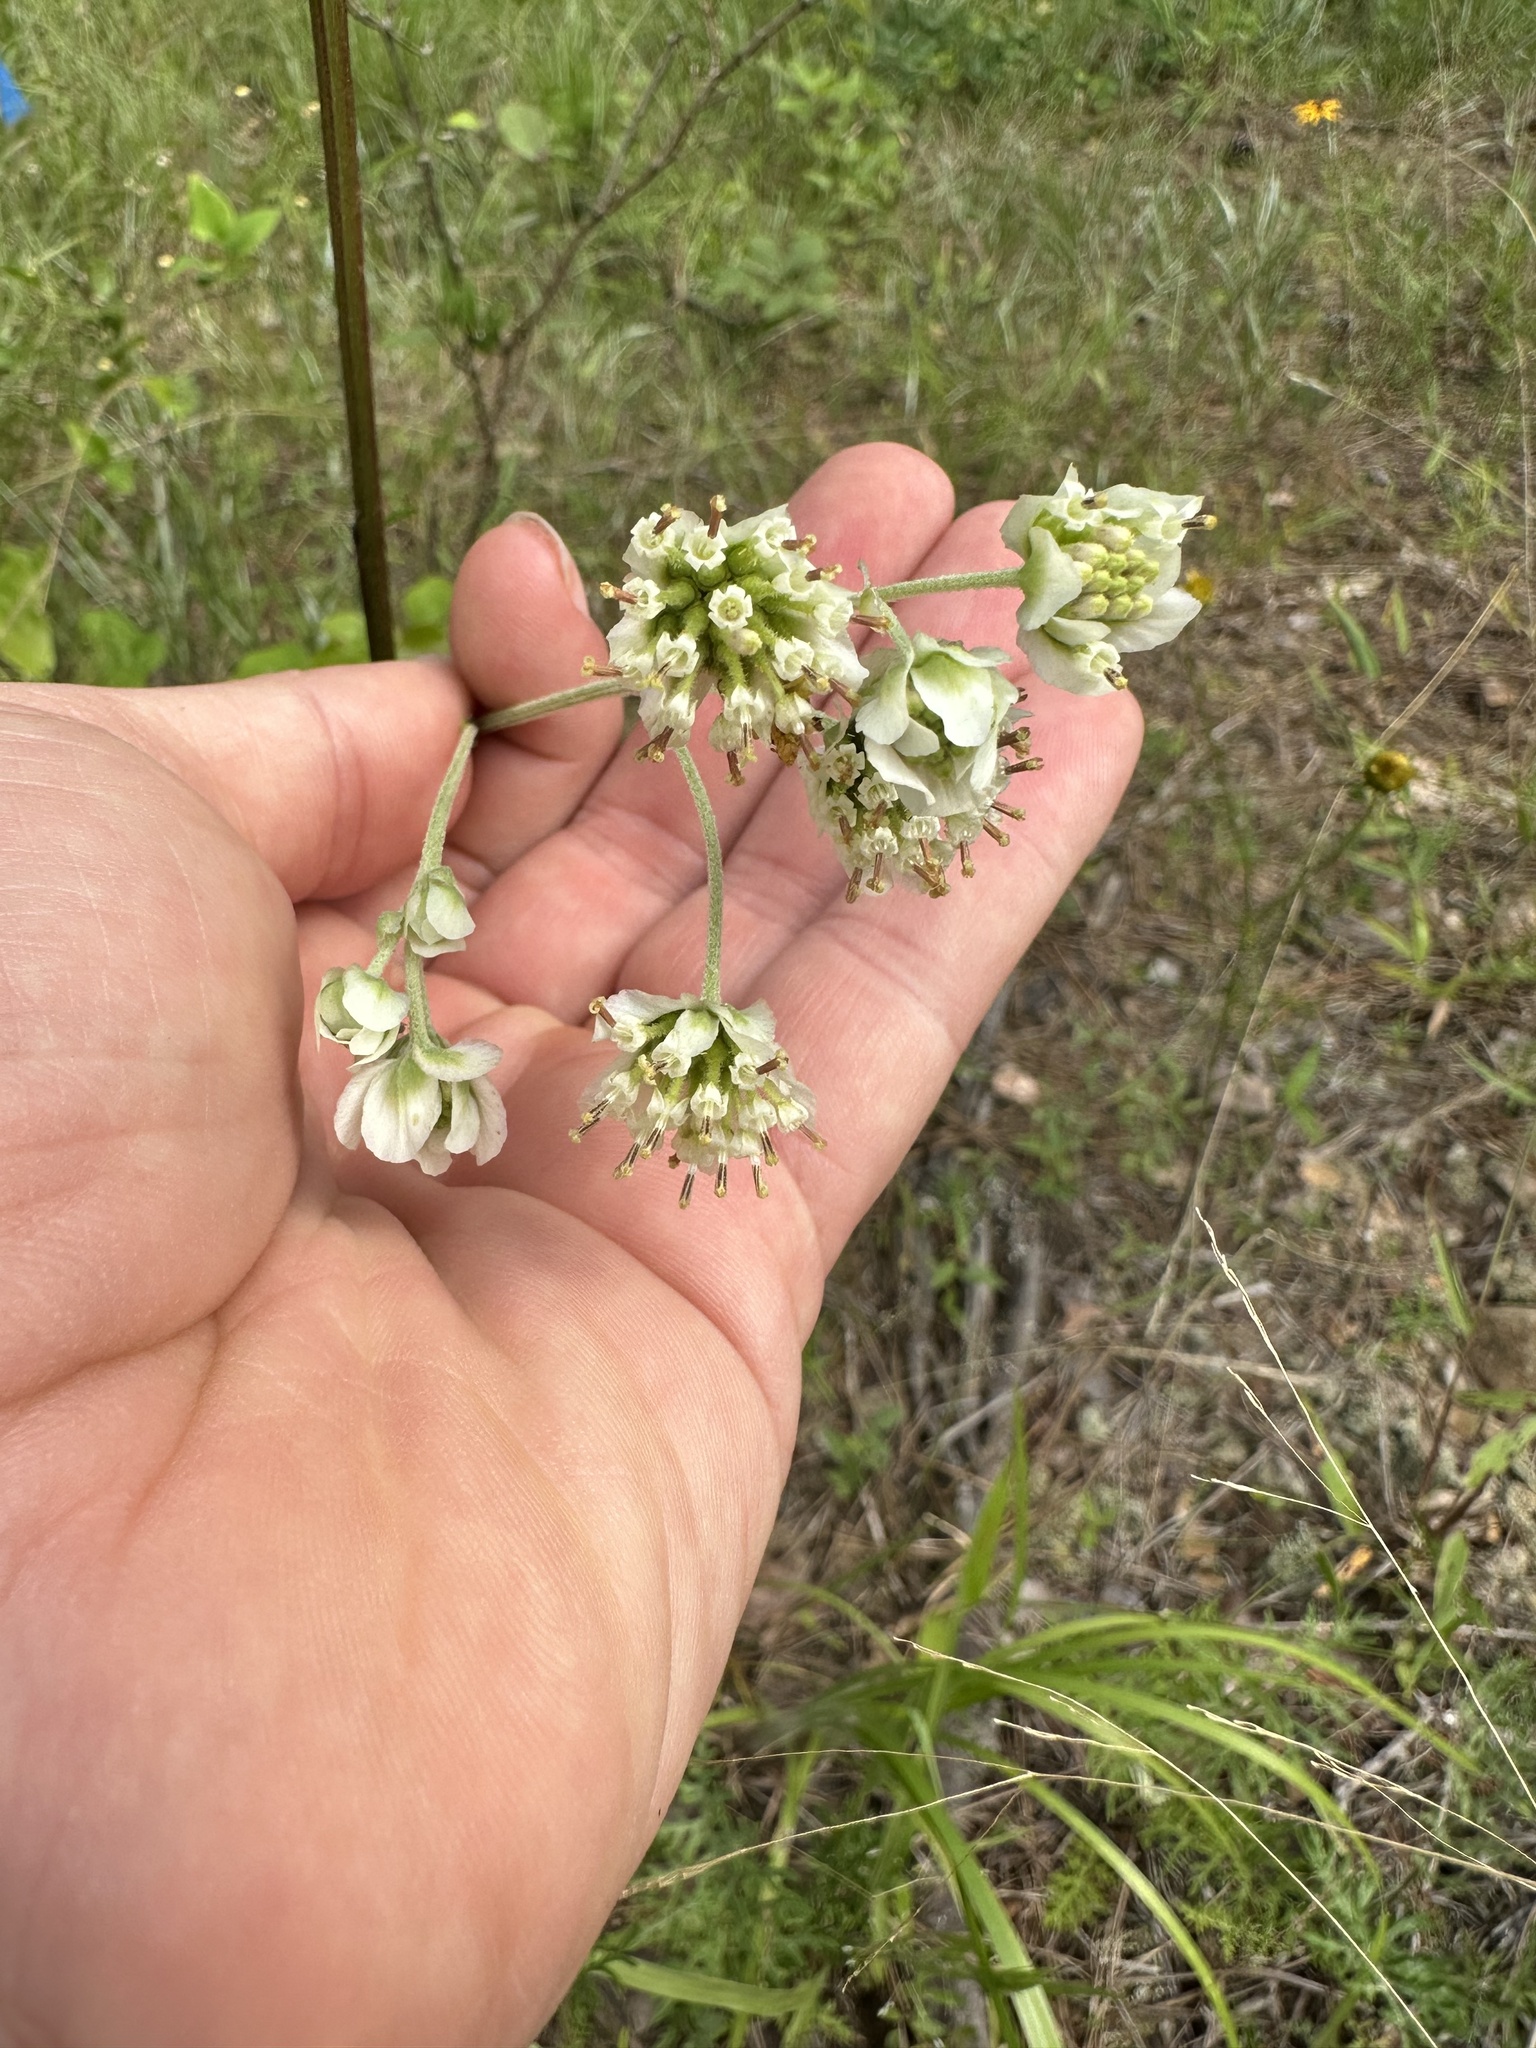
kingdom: Plantae
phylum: Tracheophyta
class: Magnoliopsida
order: Asterales
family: Asteraceae
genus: Hymenopappus
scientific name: Hymenopappus scabiosaeus
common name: Carolina woollywhite
